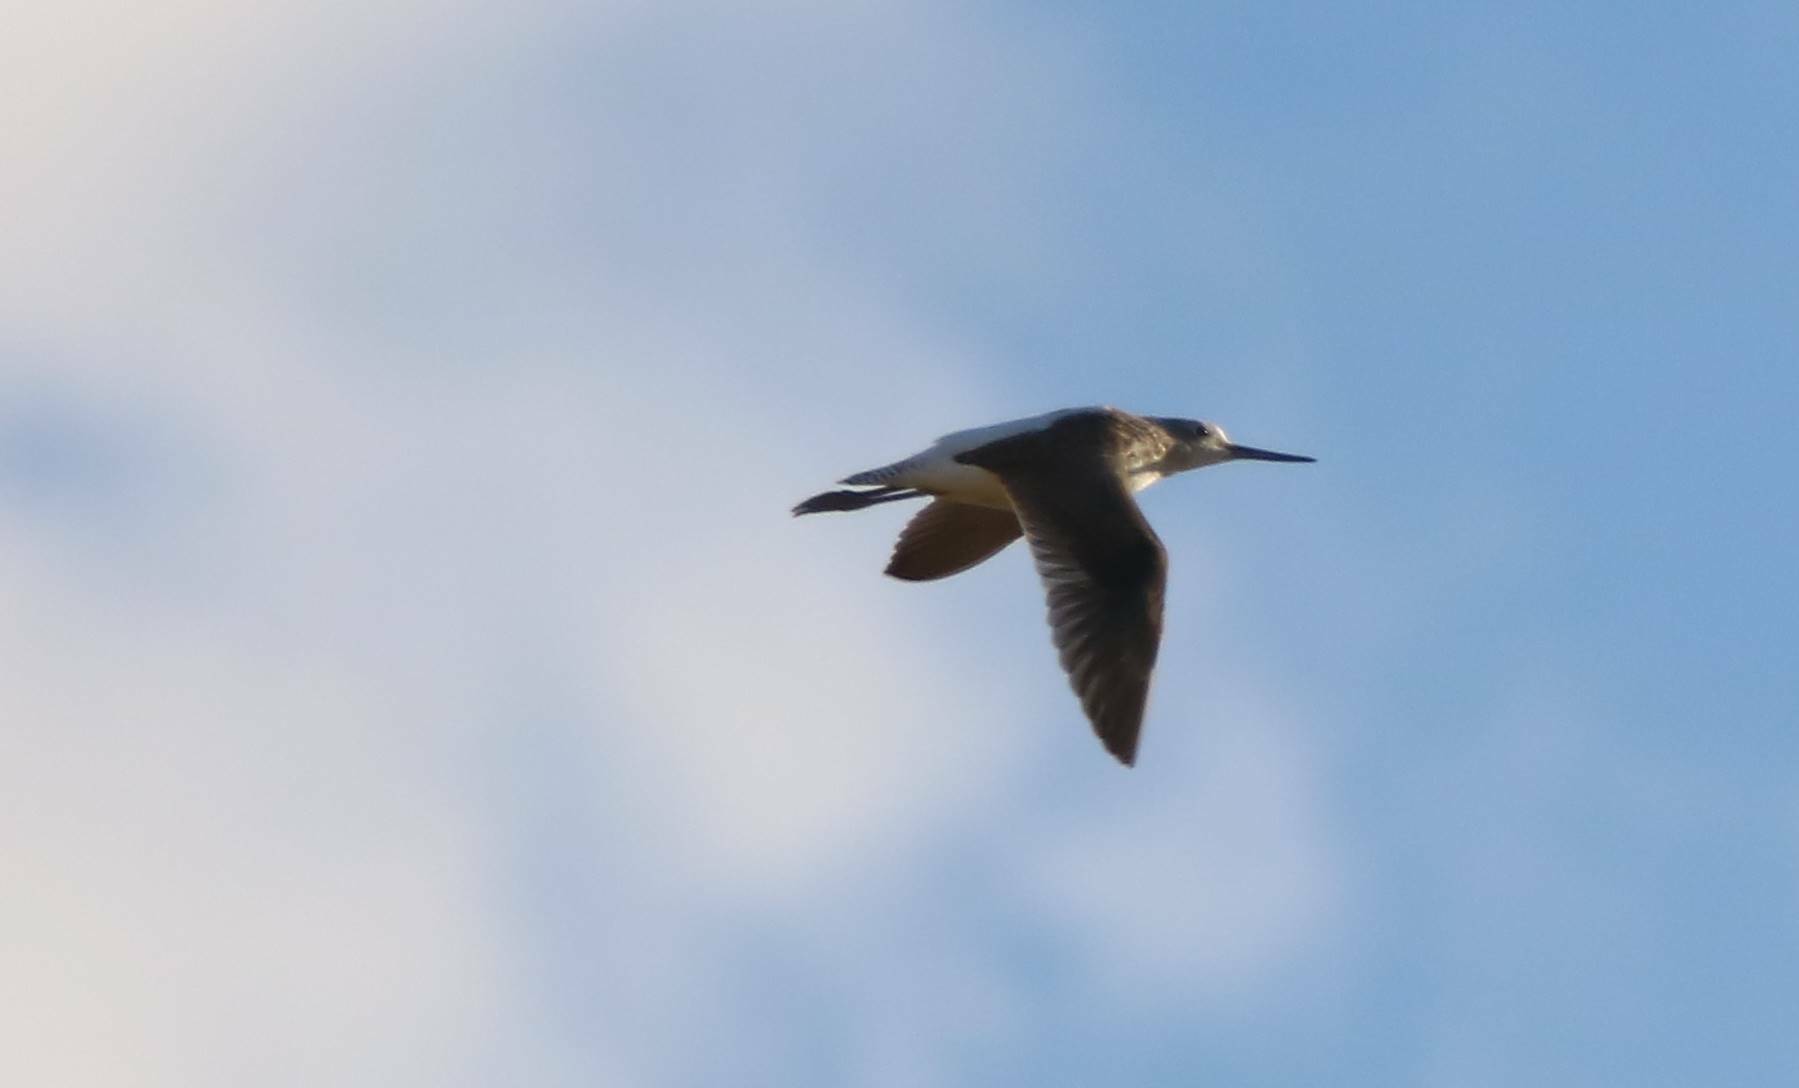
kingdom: Animalia
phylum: Chordata
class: Aves
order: Charadriiformes
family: Scolopacidae
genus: Tringa
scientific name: Tringa nebularia
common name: Common greenshank
